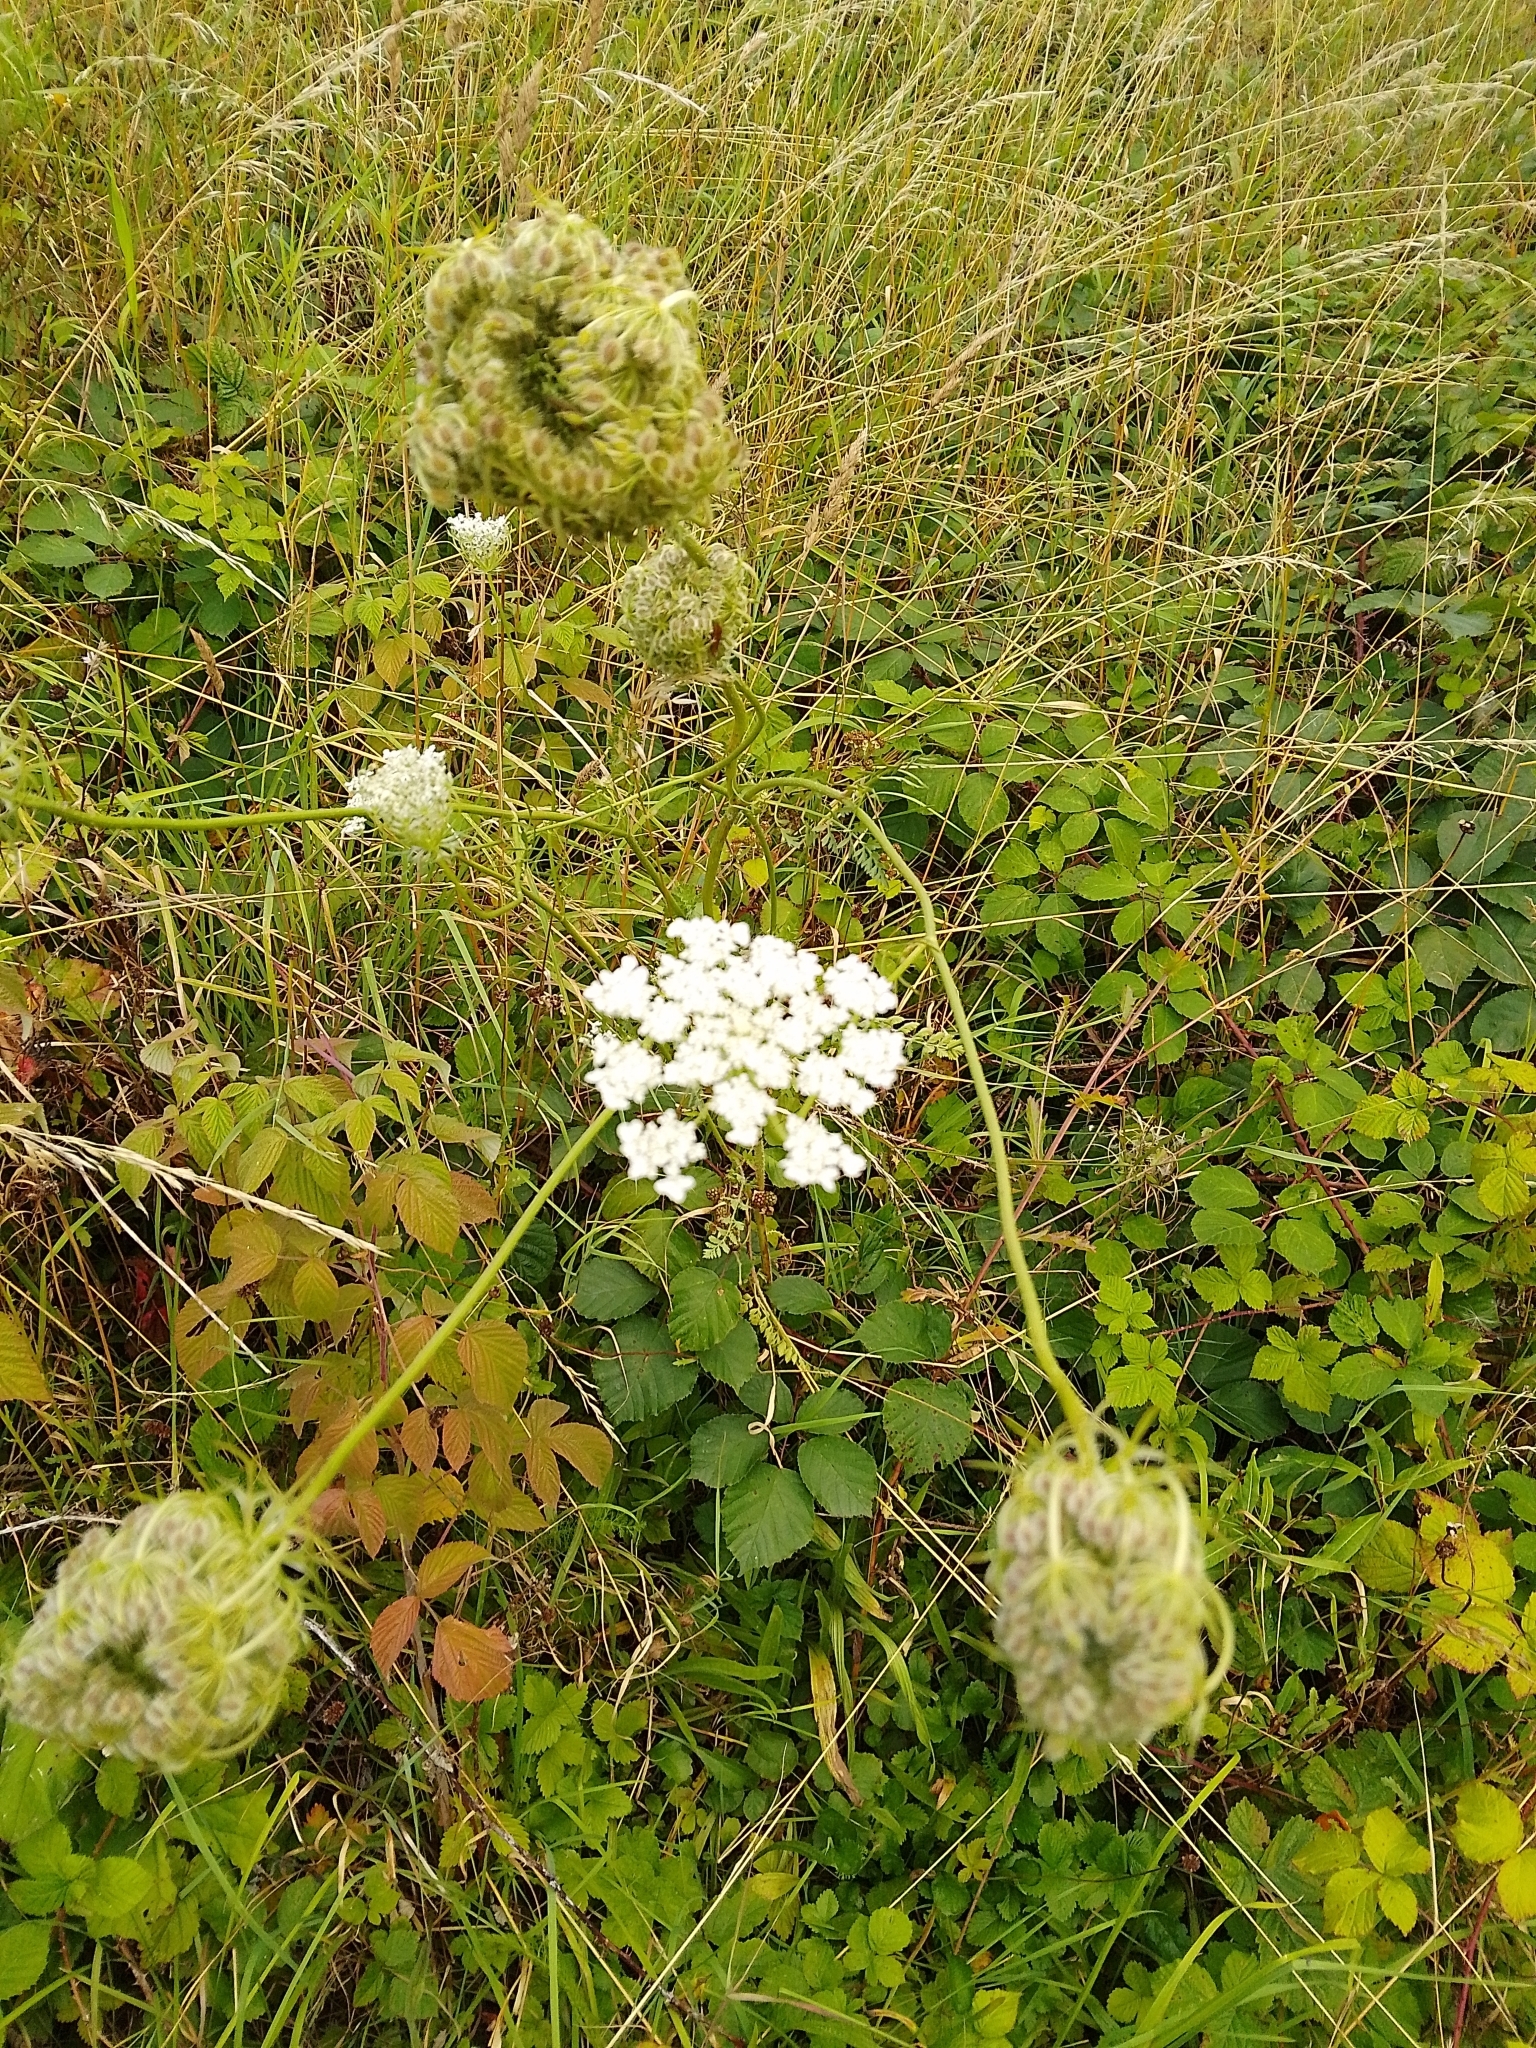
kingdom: Plantae
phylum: Tracheophyta
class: Magnoliopsida
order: Apiales
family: Apiaceae
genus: Daucus
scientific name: Daucus carota
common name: Wild carrot
